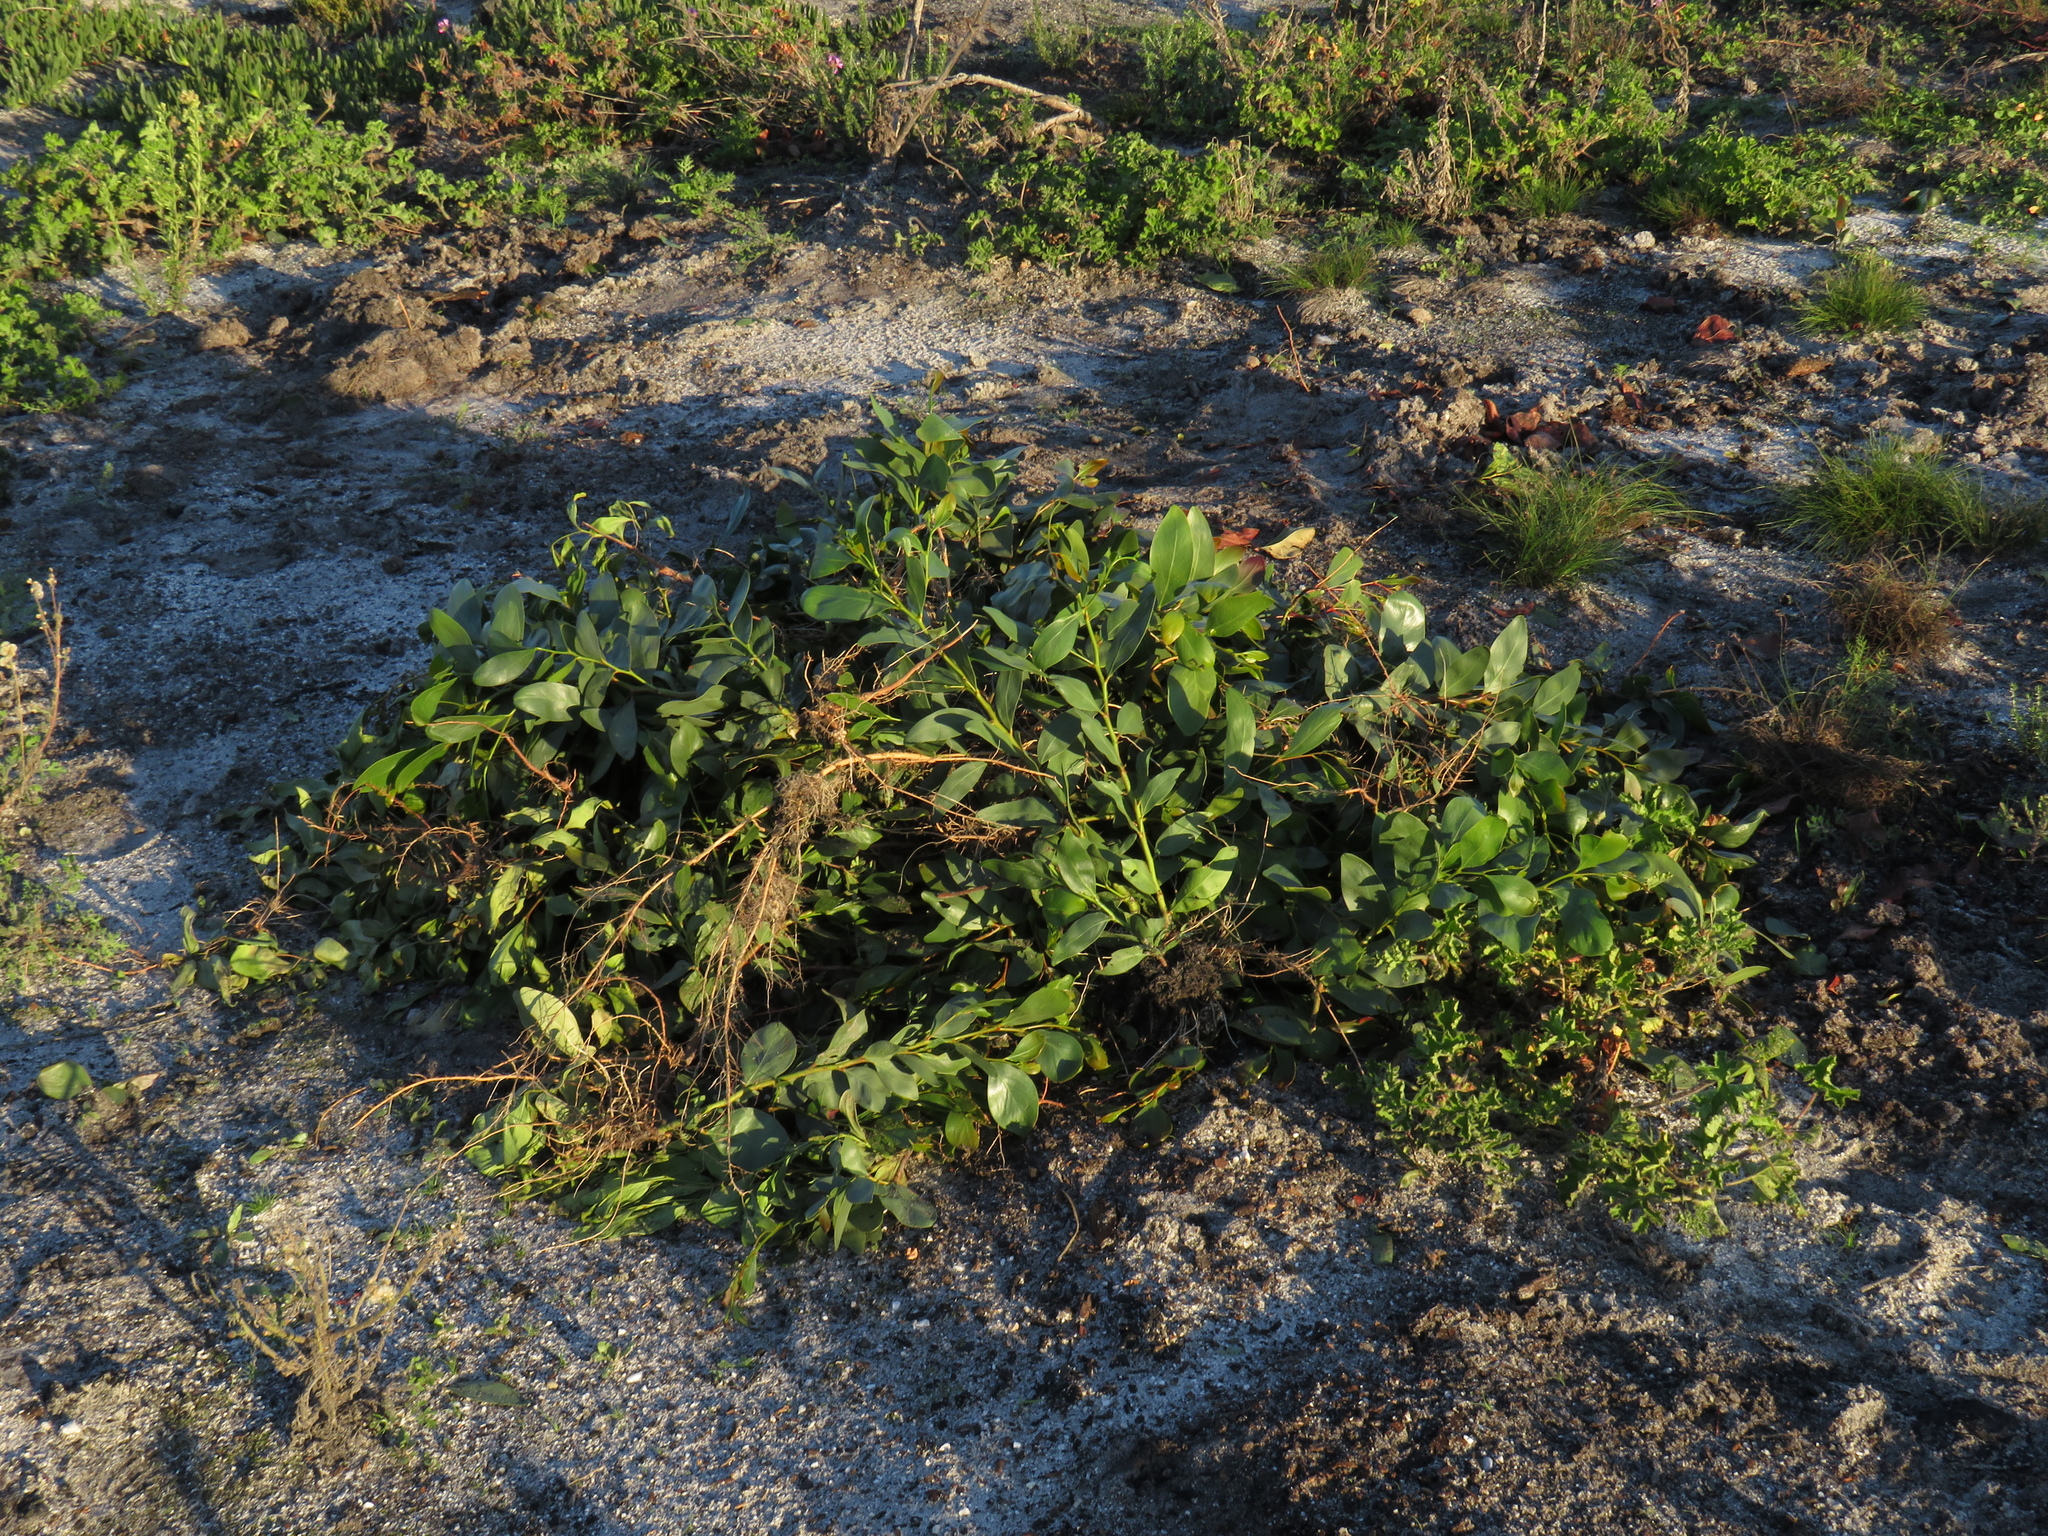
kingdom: Plantae
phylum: Tracheophyta
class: Magnoliopsida
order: Fabales
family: Fabaceae
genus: Acacia
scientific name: Acacia pycnantha
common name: Golden wattle
